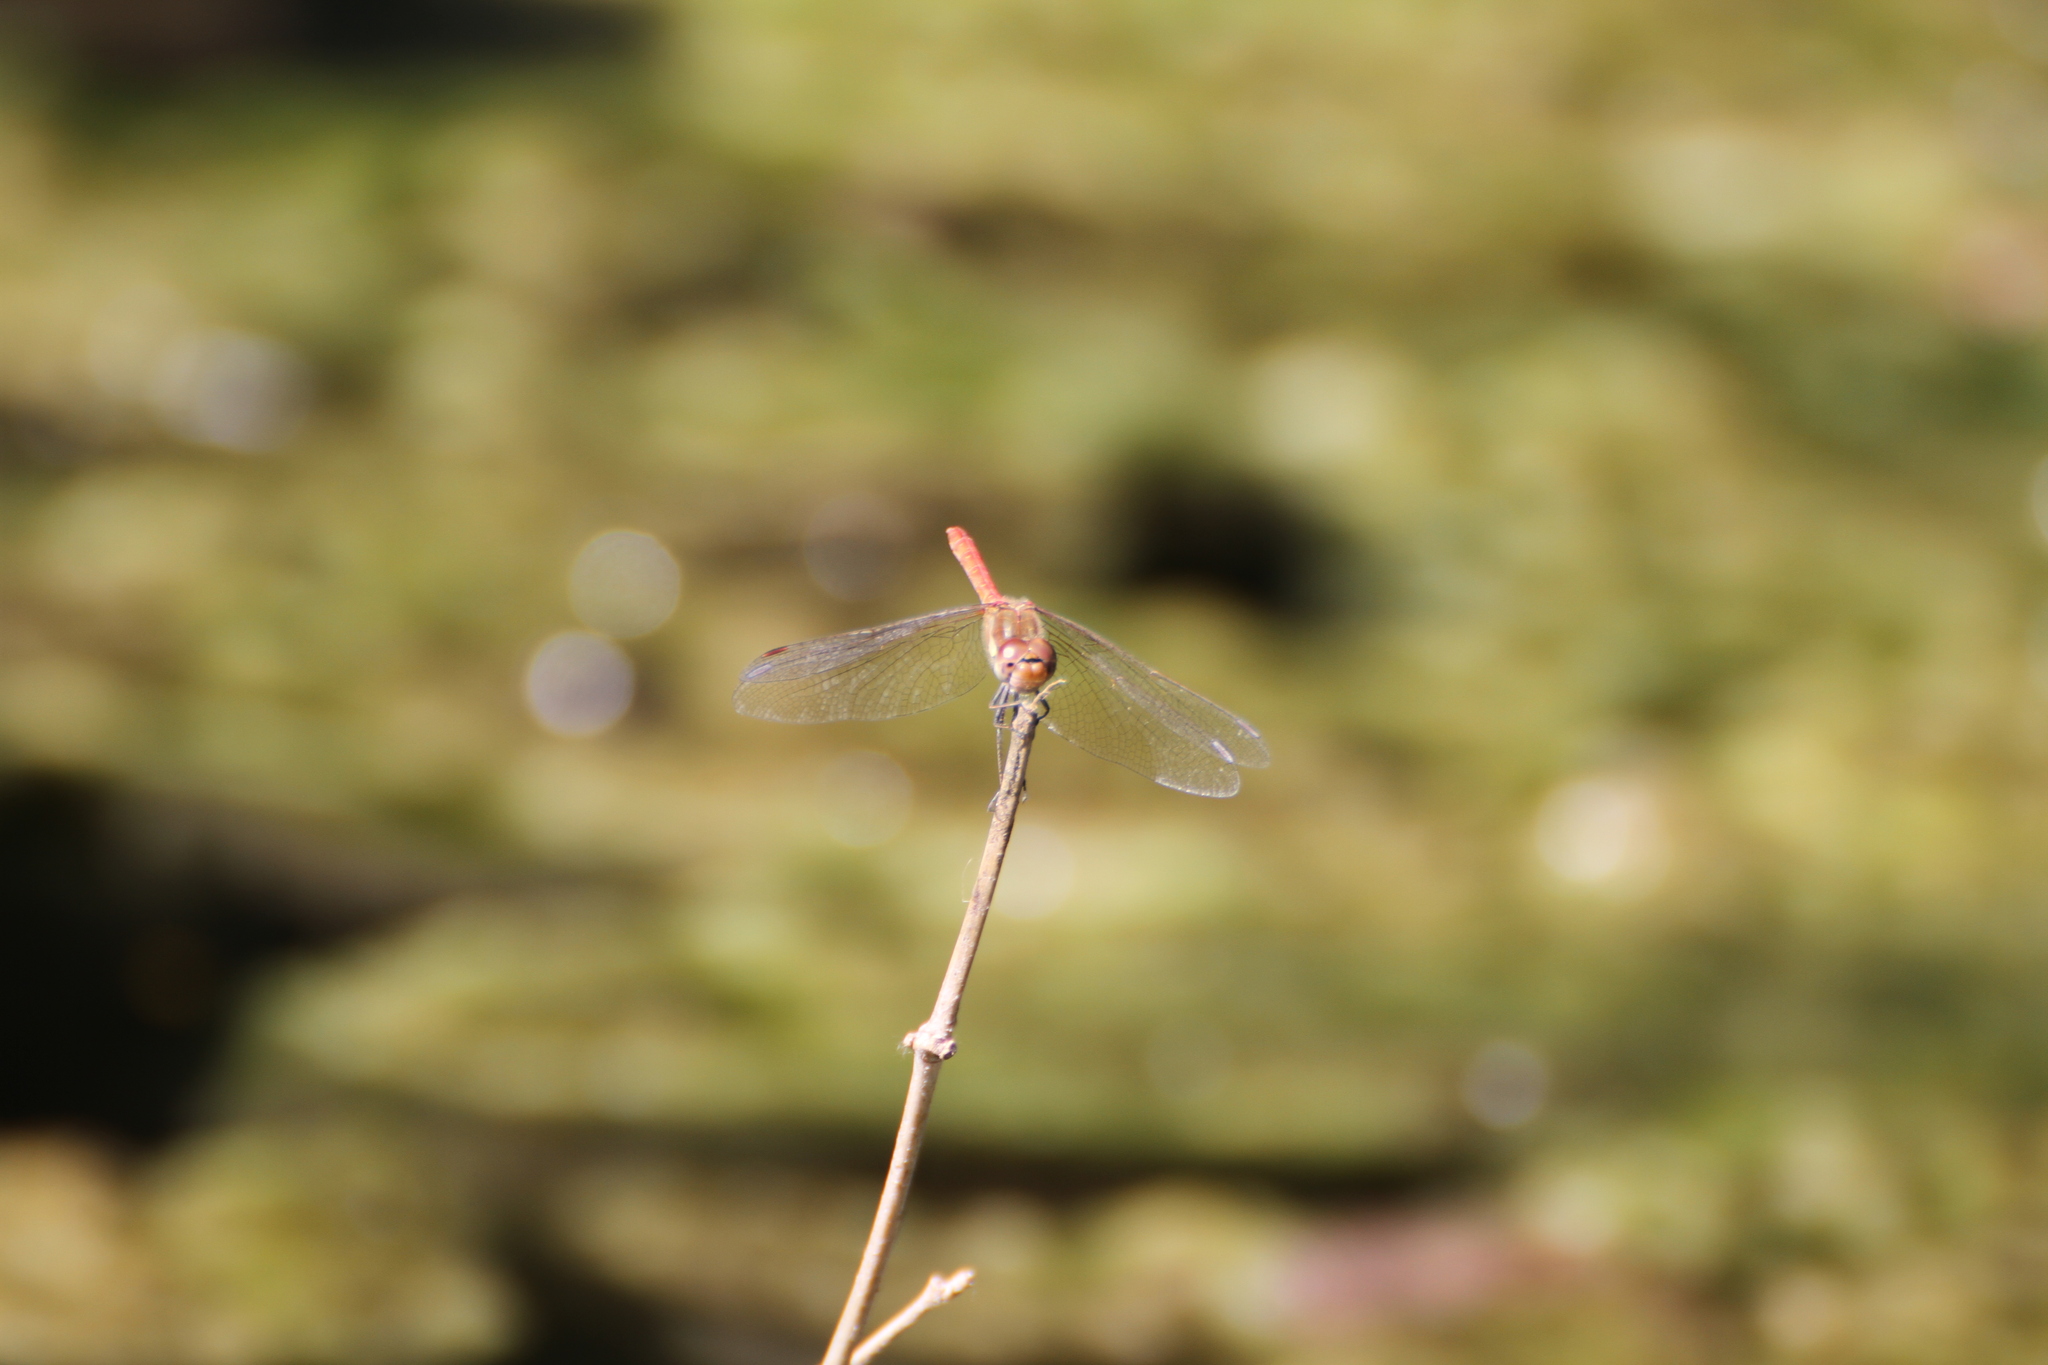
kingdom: Animalia
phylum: Arthropoda
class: Insecta
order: Odonata
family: Libellulidae
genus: Sympetrum
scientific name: Sympetrum striolatum
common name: Common darter
